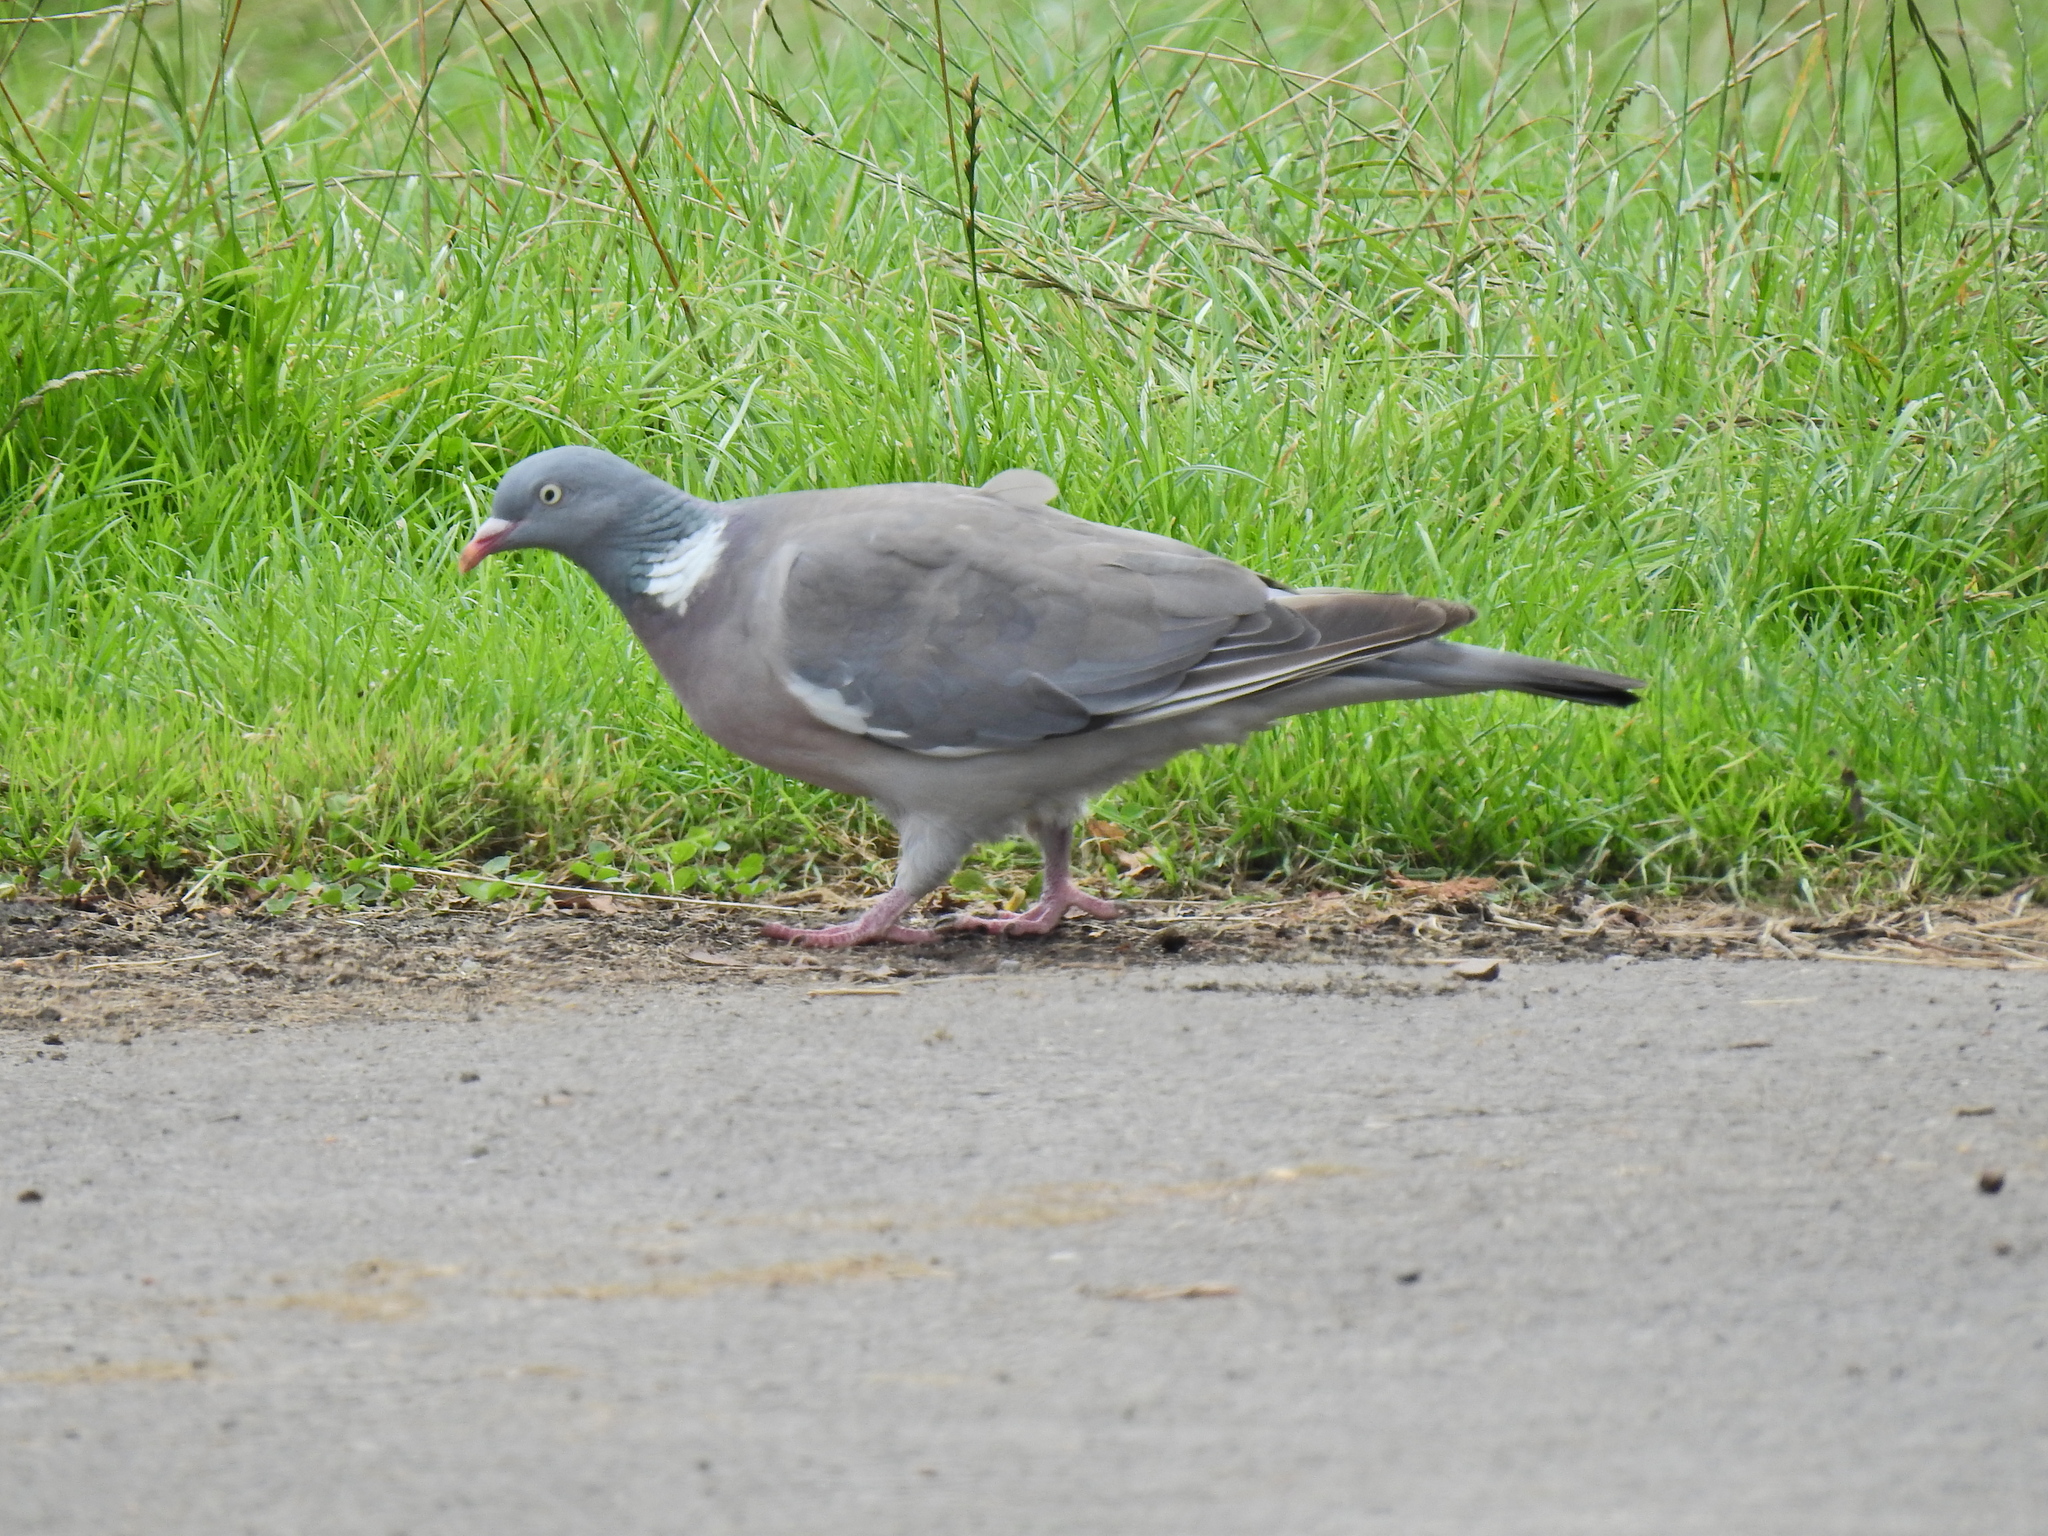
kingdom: Animalia
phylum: Chordata
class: Aves
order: Columbiformes
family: Columbidae
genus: Columba
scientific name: Columba palumbus
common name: Common wood pigeon
